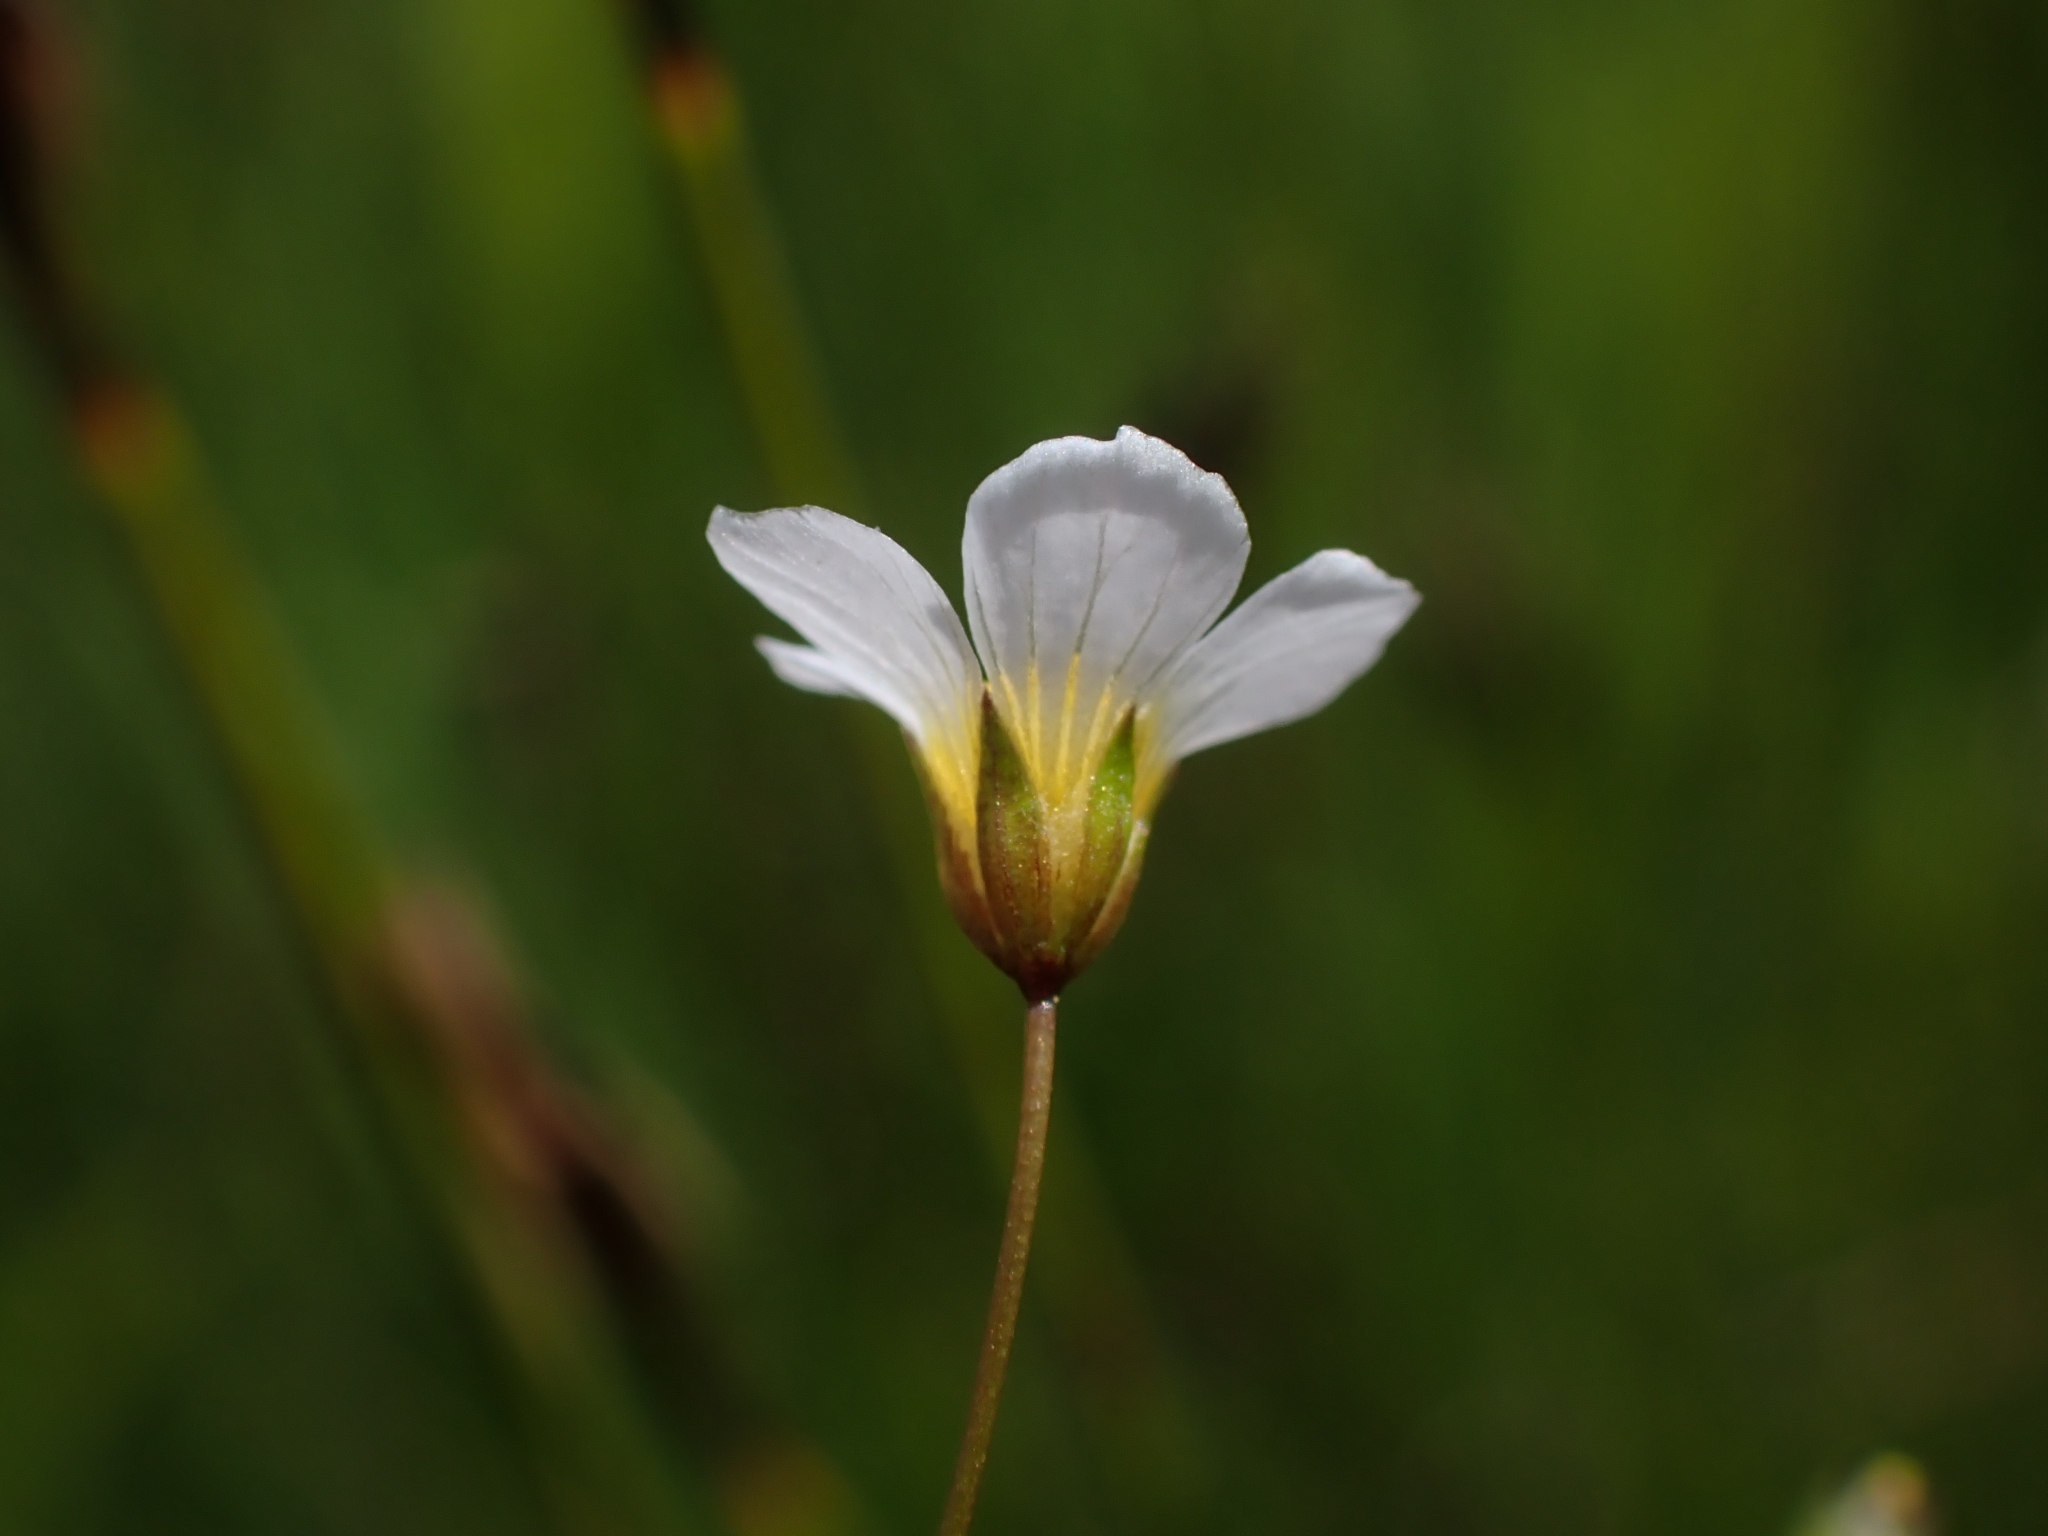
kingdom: Plantae
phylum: Tracheophyta
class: Magnoliopsida
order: Malpighiales
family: Linaceae
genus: Linum
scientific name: Linum catharticum
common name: Fairy flax
